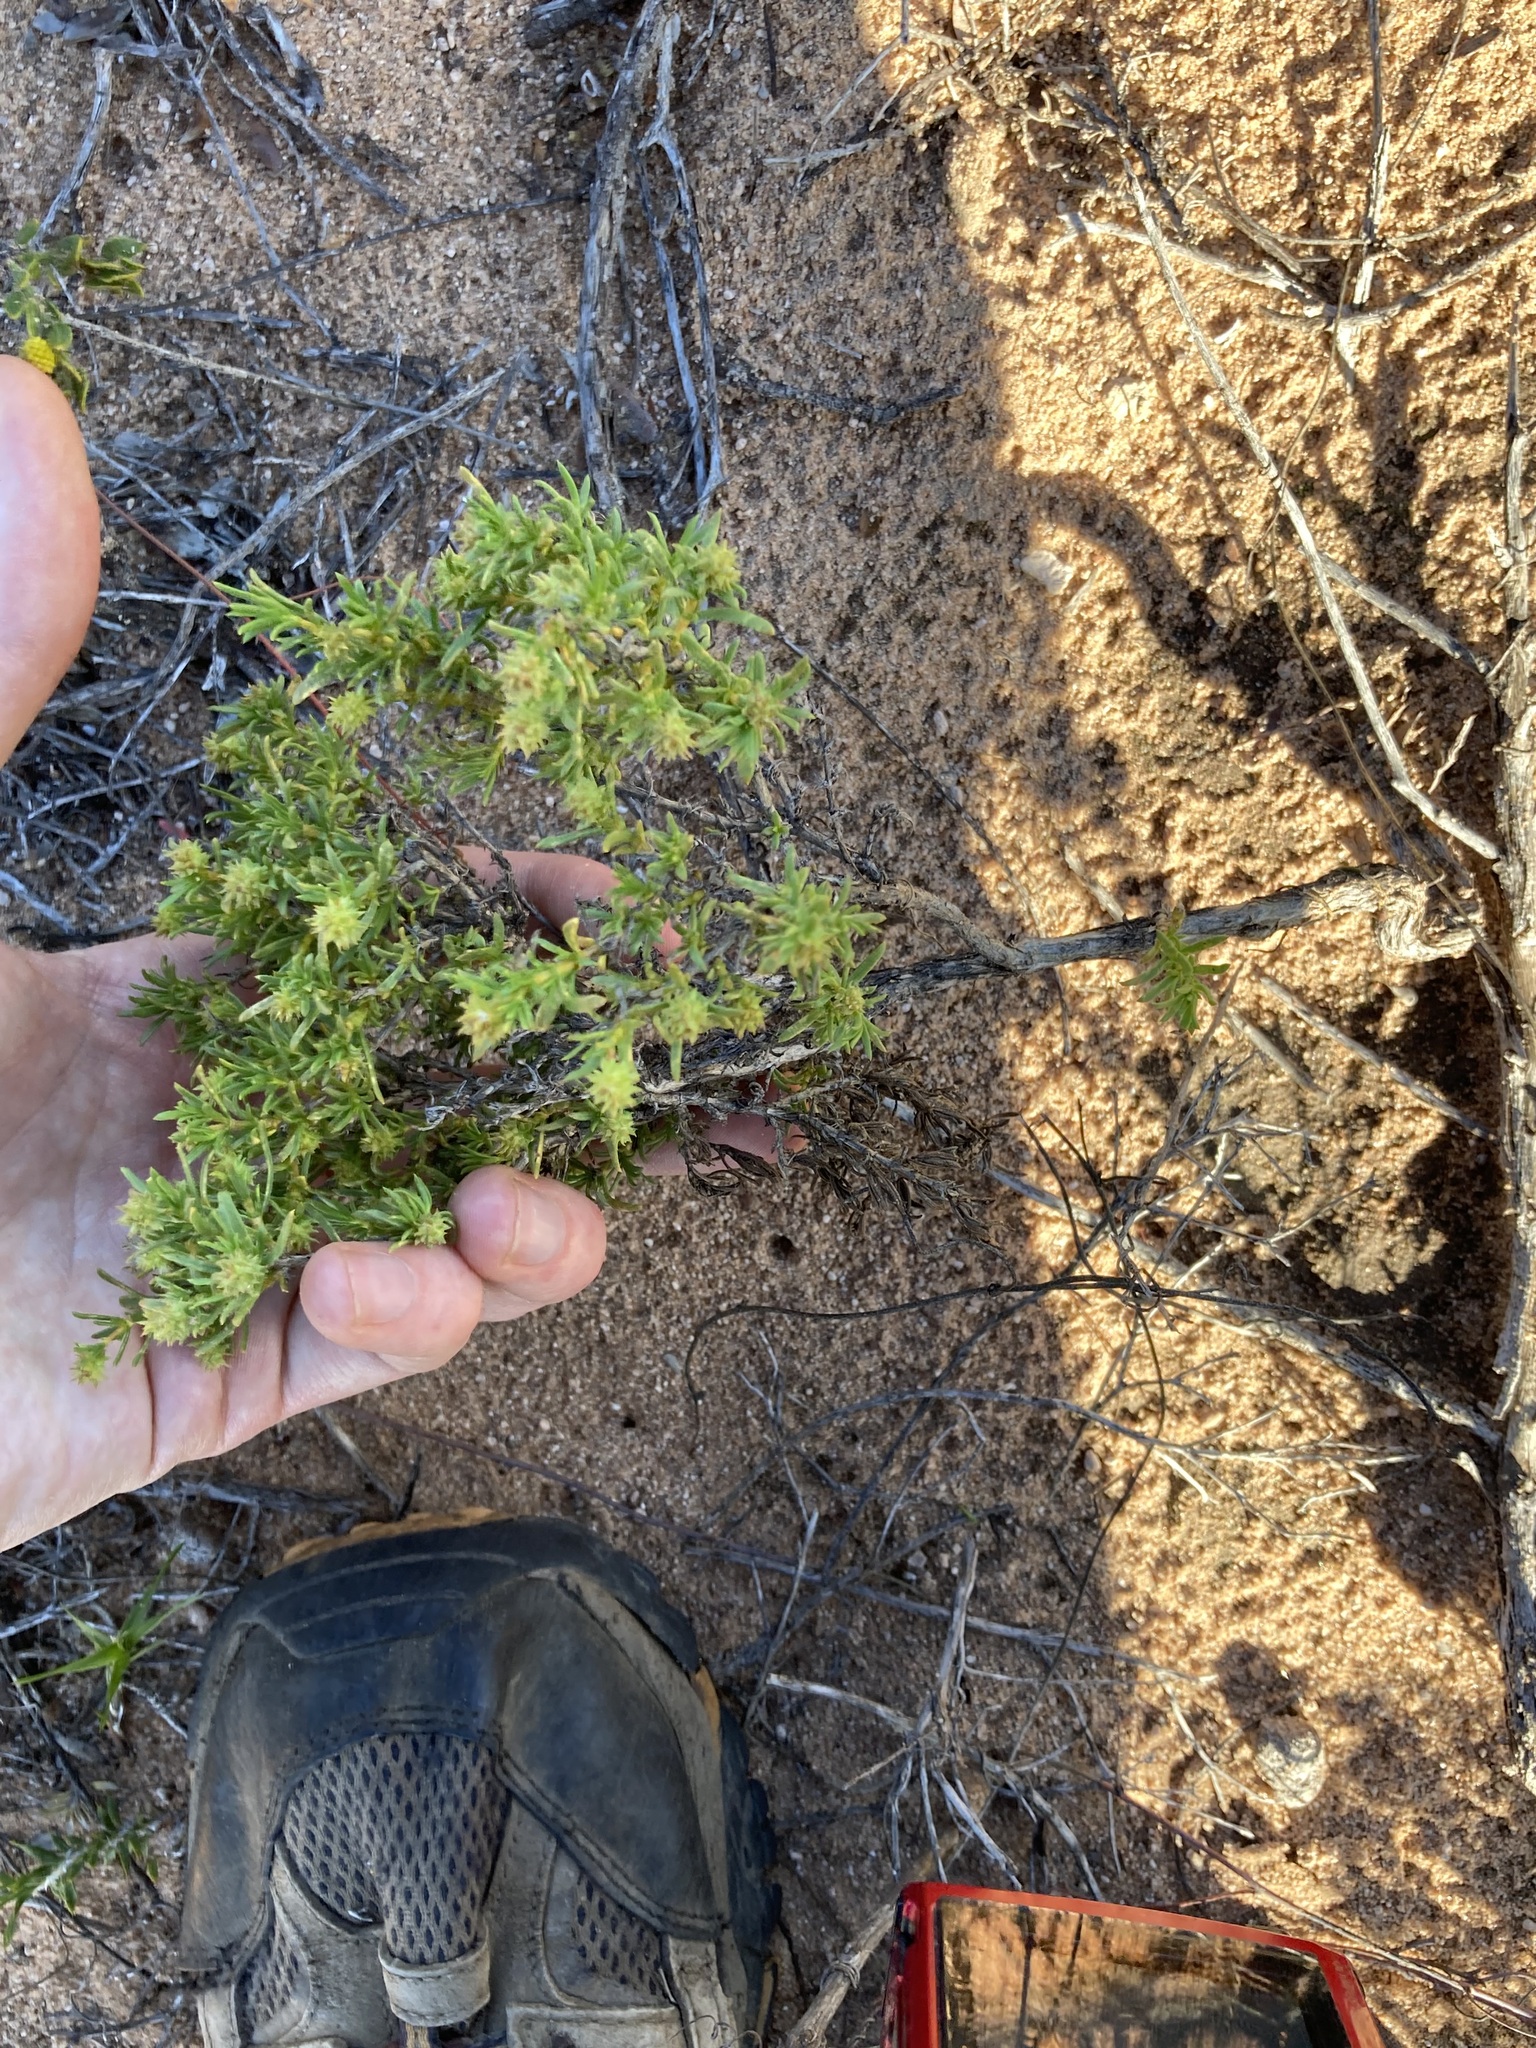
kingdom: Plantae
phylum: Tracheophyta
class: Magnoliopsida
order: Gentianales
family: Rubiaceae
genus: Opercularia
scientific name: Opercularia spermacocea
